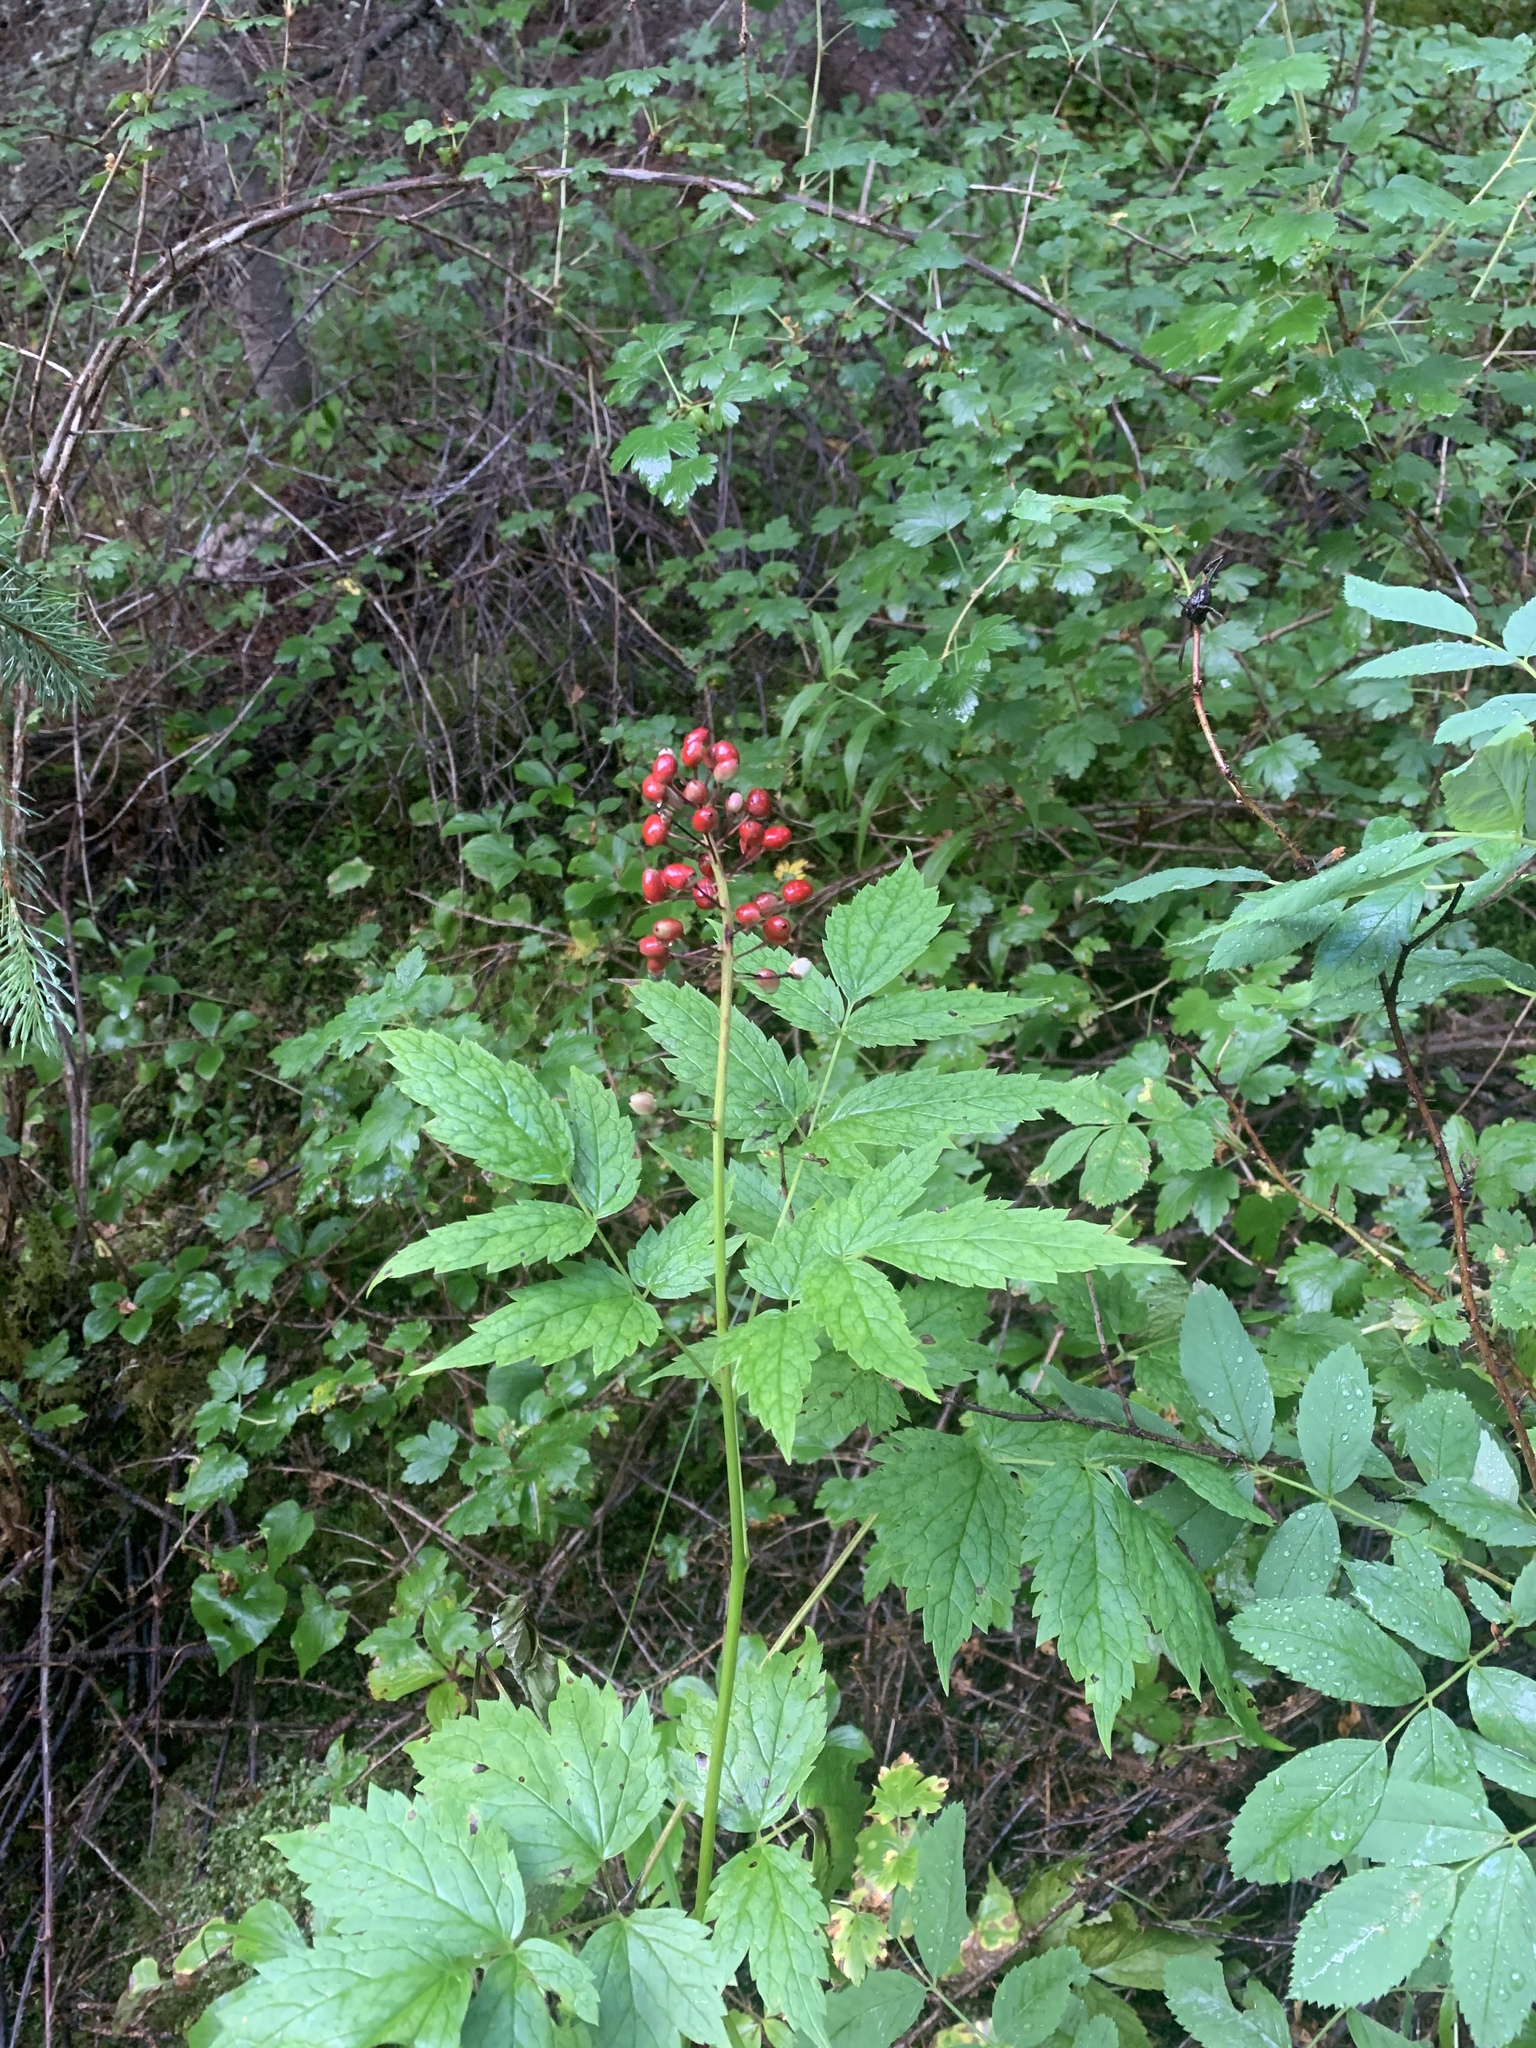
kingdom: Plantae
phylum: Tracheophyta
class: Magnoliopsida
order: Ranunculales
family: Ranunculaceae
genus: Actaea
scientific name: Actaea rubra
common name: Red baneberry
